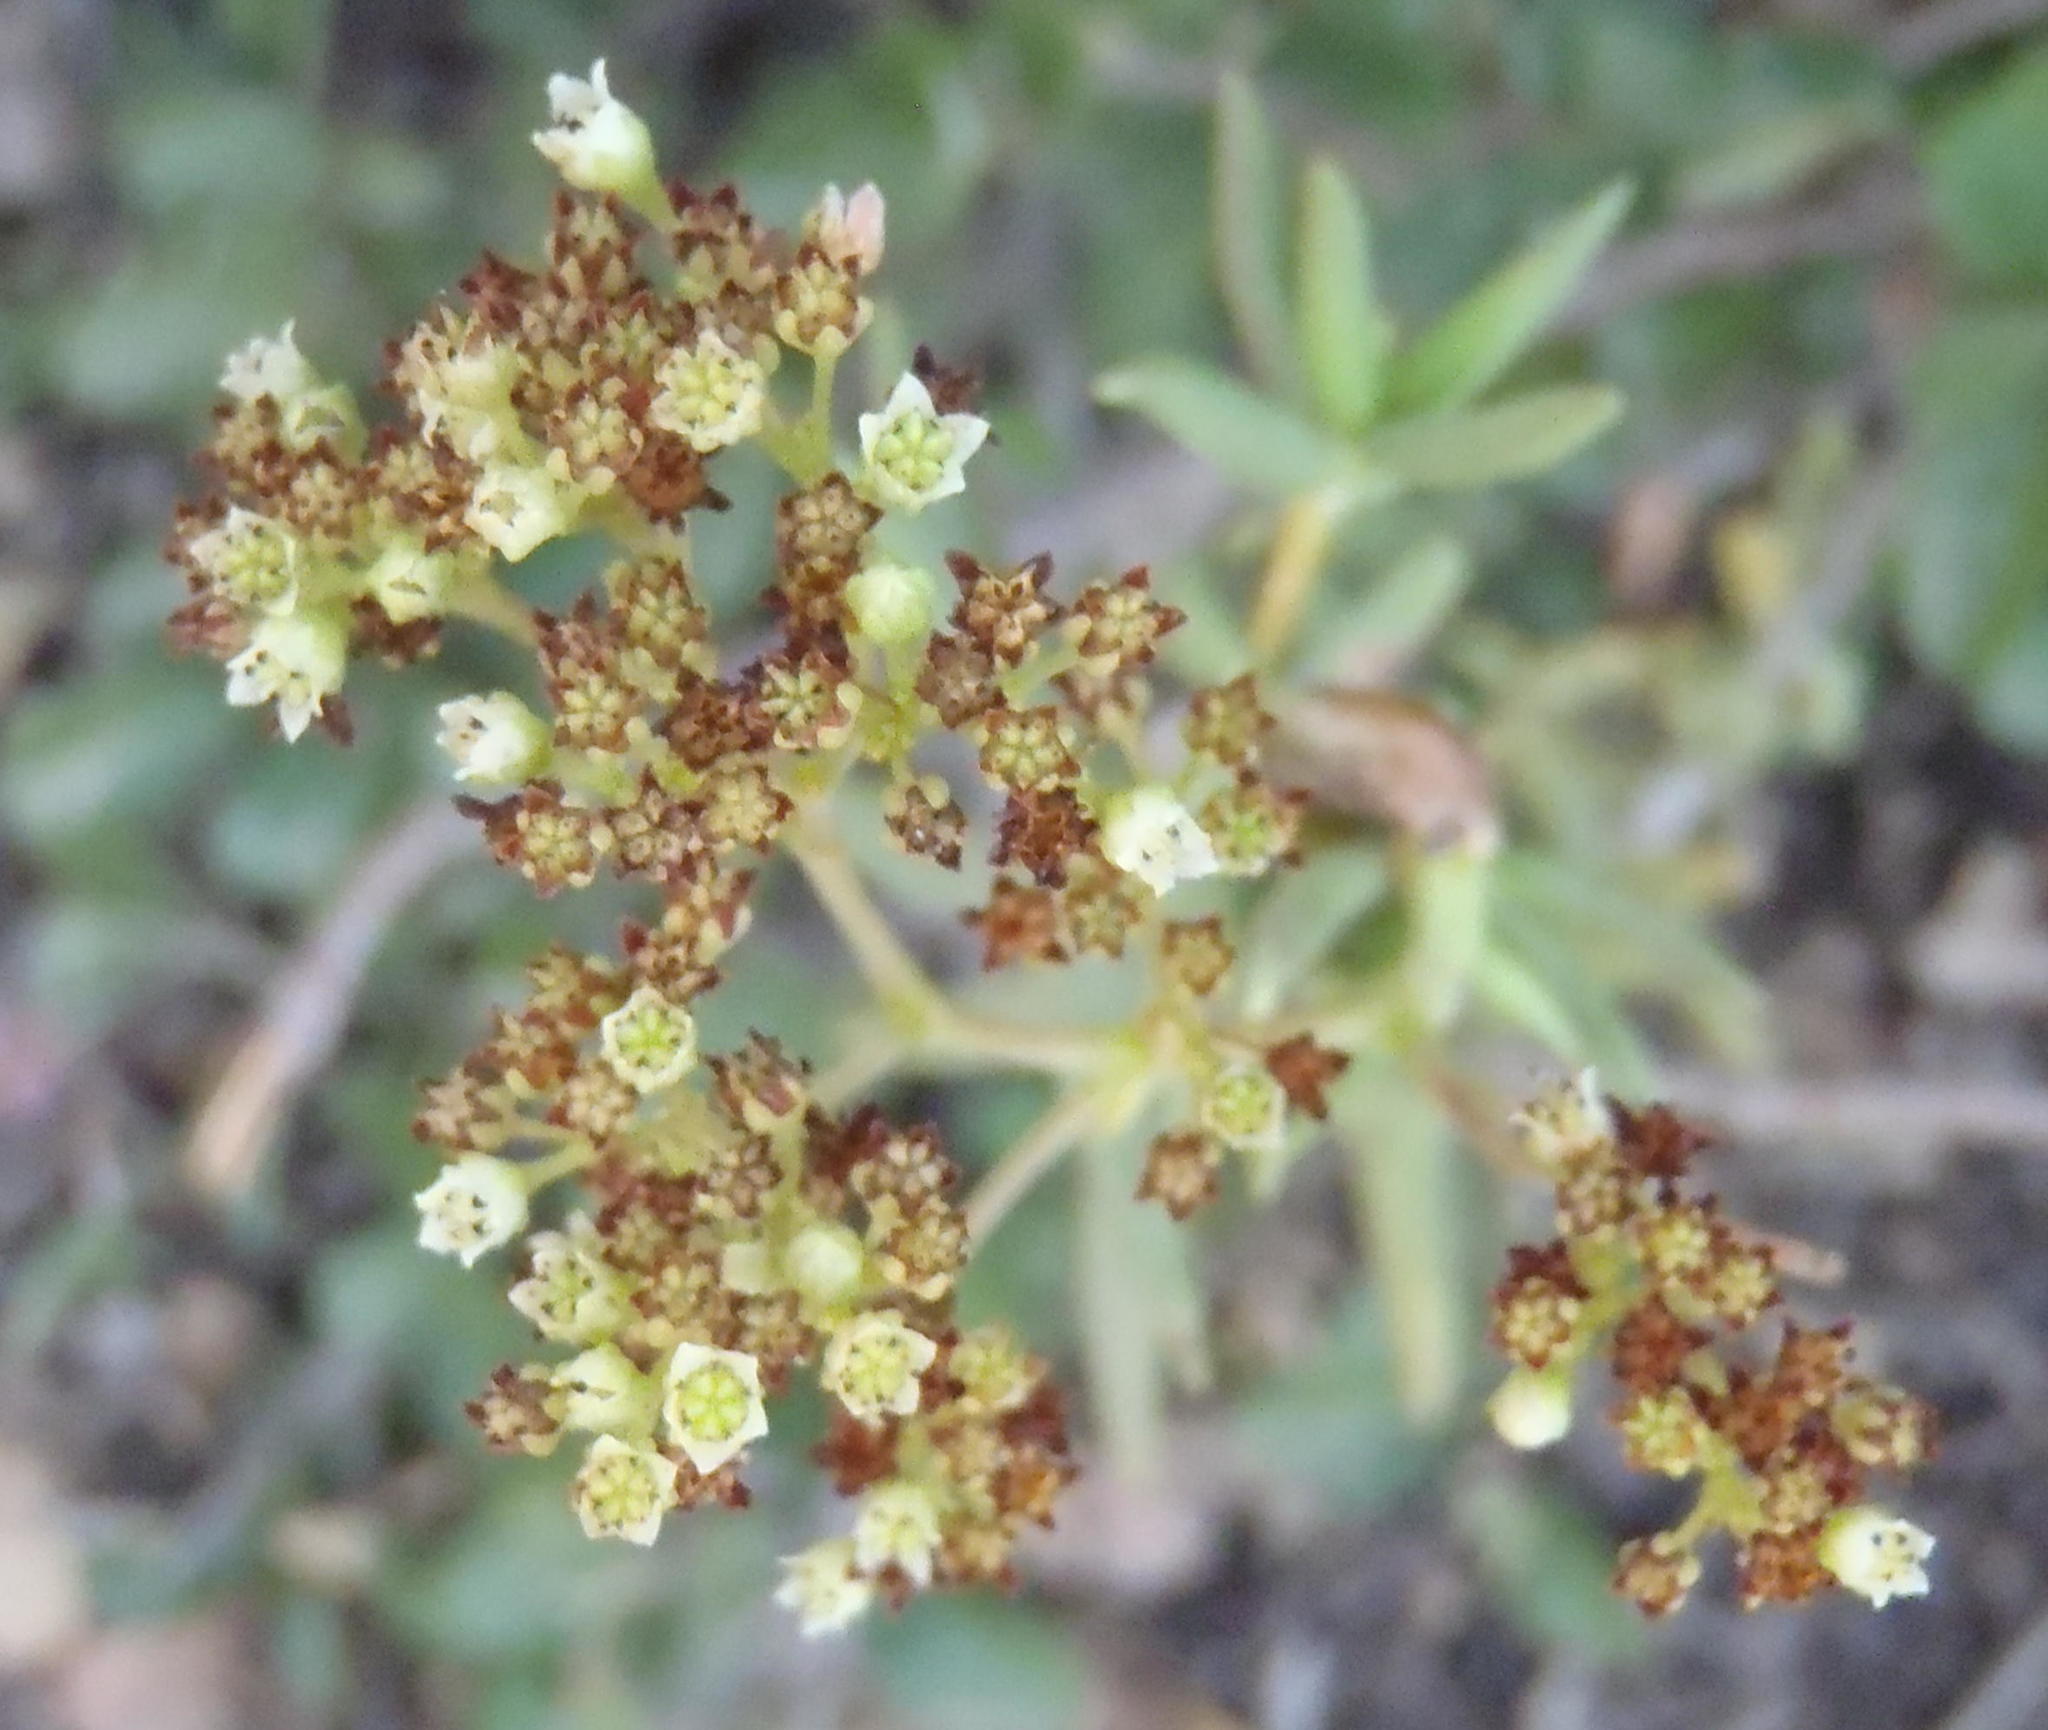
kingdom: Plantae
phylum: Tracheophyta
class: Magnoliopsida
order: Saxifragales
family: Crassulaceae
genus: Crassula
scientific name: Crassula tetragona
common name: Pygmyweed
